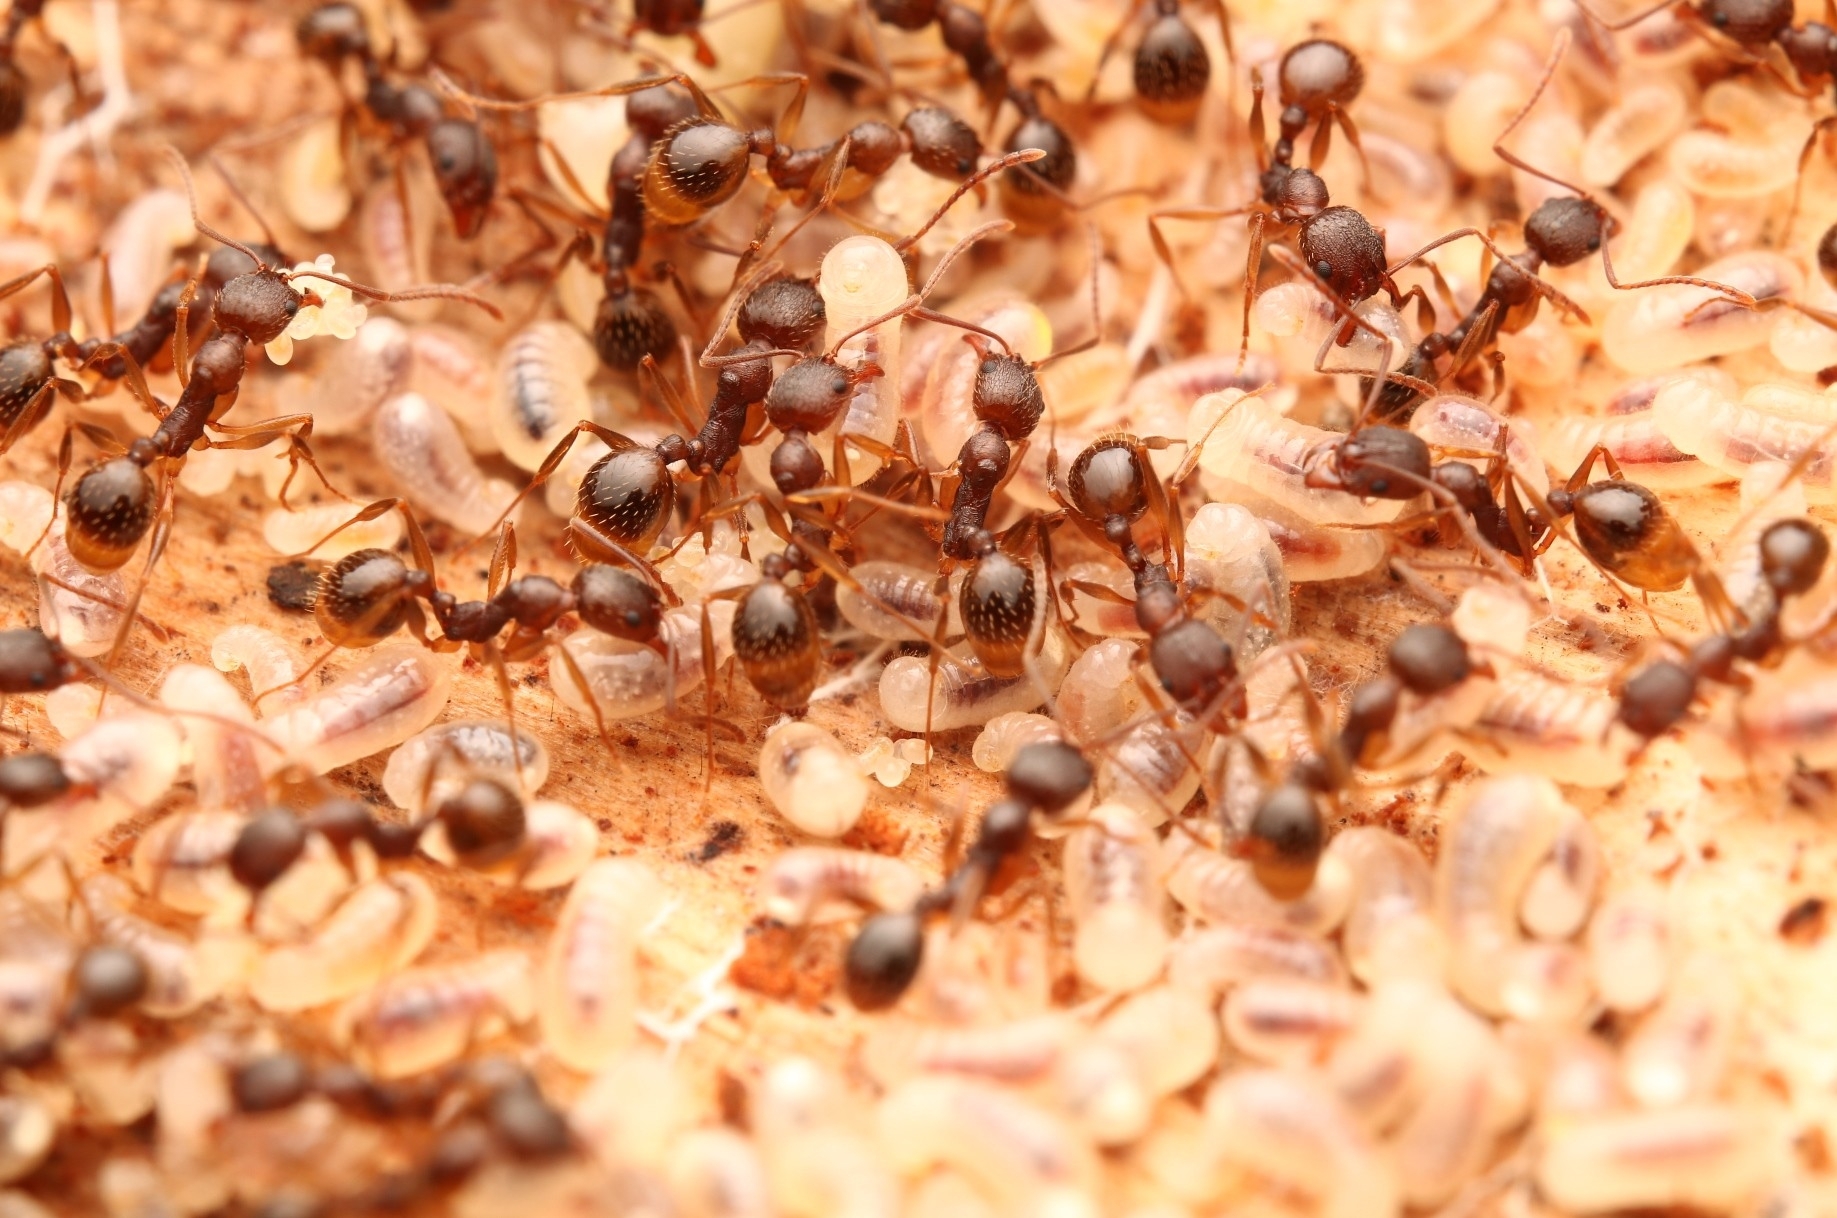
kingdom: Animalia
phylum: Arthropoda
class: Insecta
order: Hymenoptera
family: Formicidae
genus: Aphaenogaster
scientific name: Aphaenogaster rudis
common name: Winnow ant
